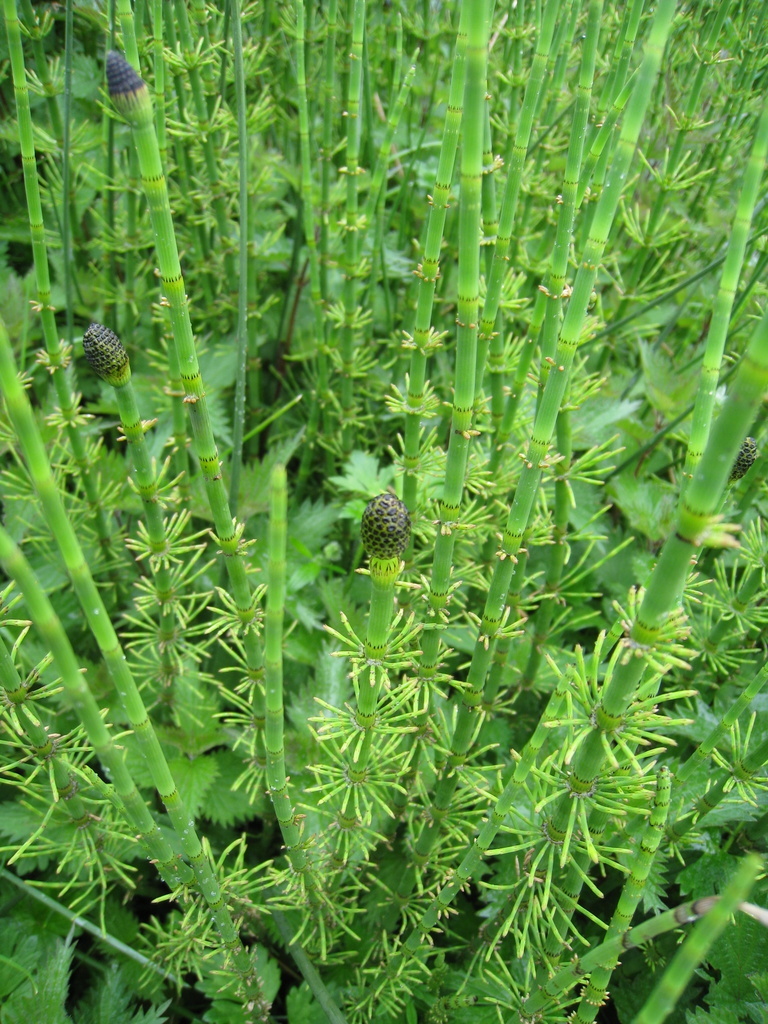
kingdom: Plantae
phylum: Tracheophyta
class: Polypodiopsida
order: Equisetales
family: Equisetaceae
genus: Equisetum
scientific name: Equisetum fluviatile
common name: Water horsetail
